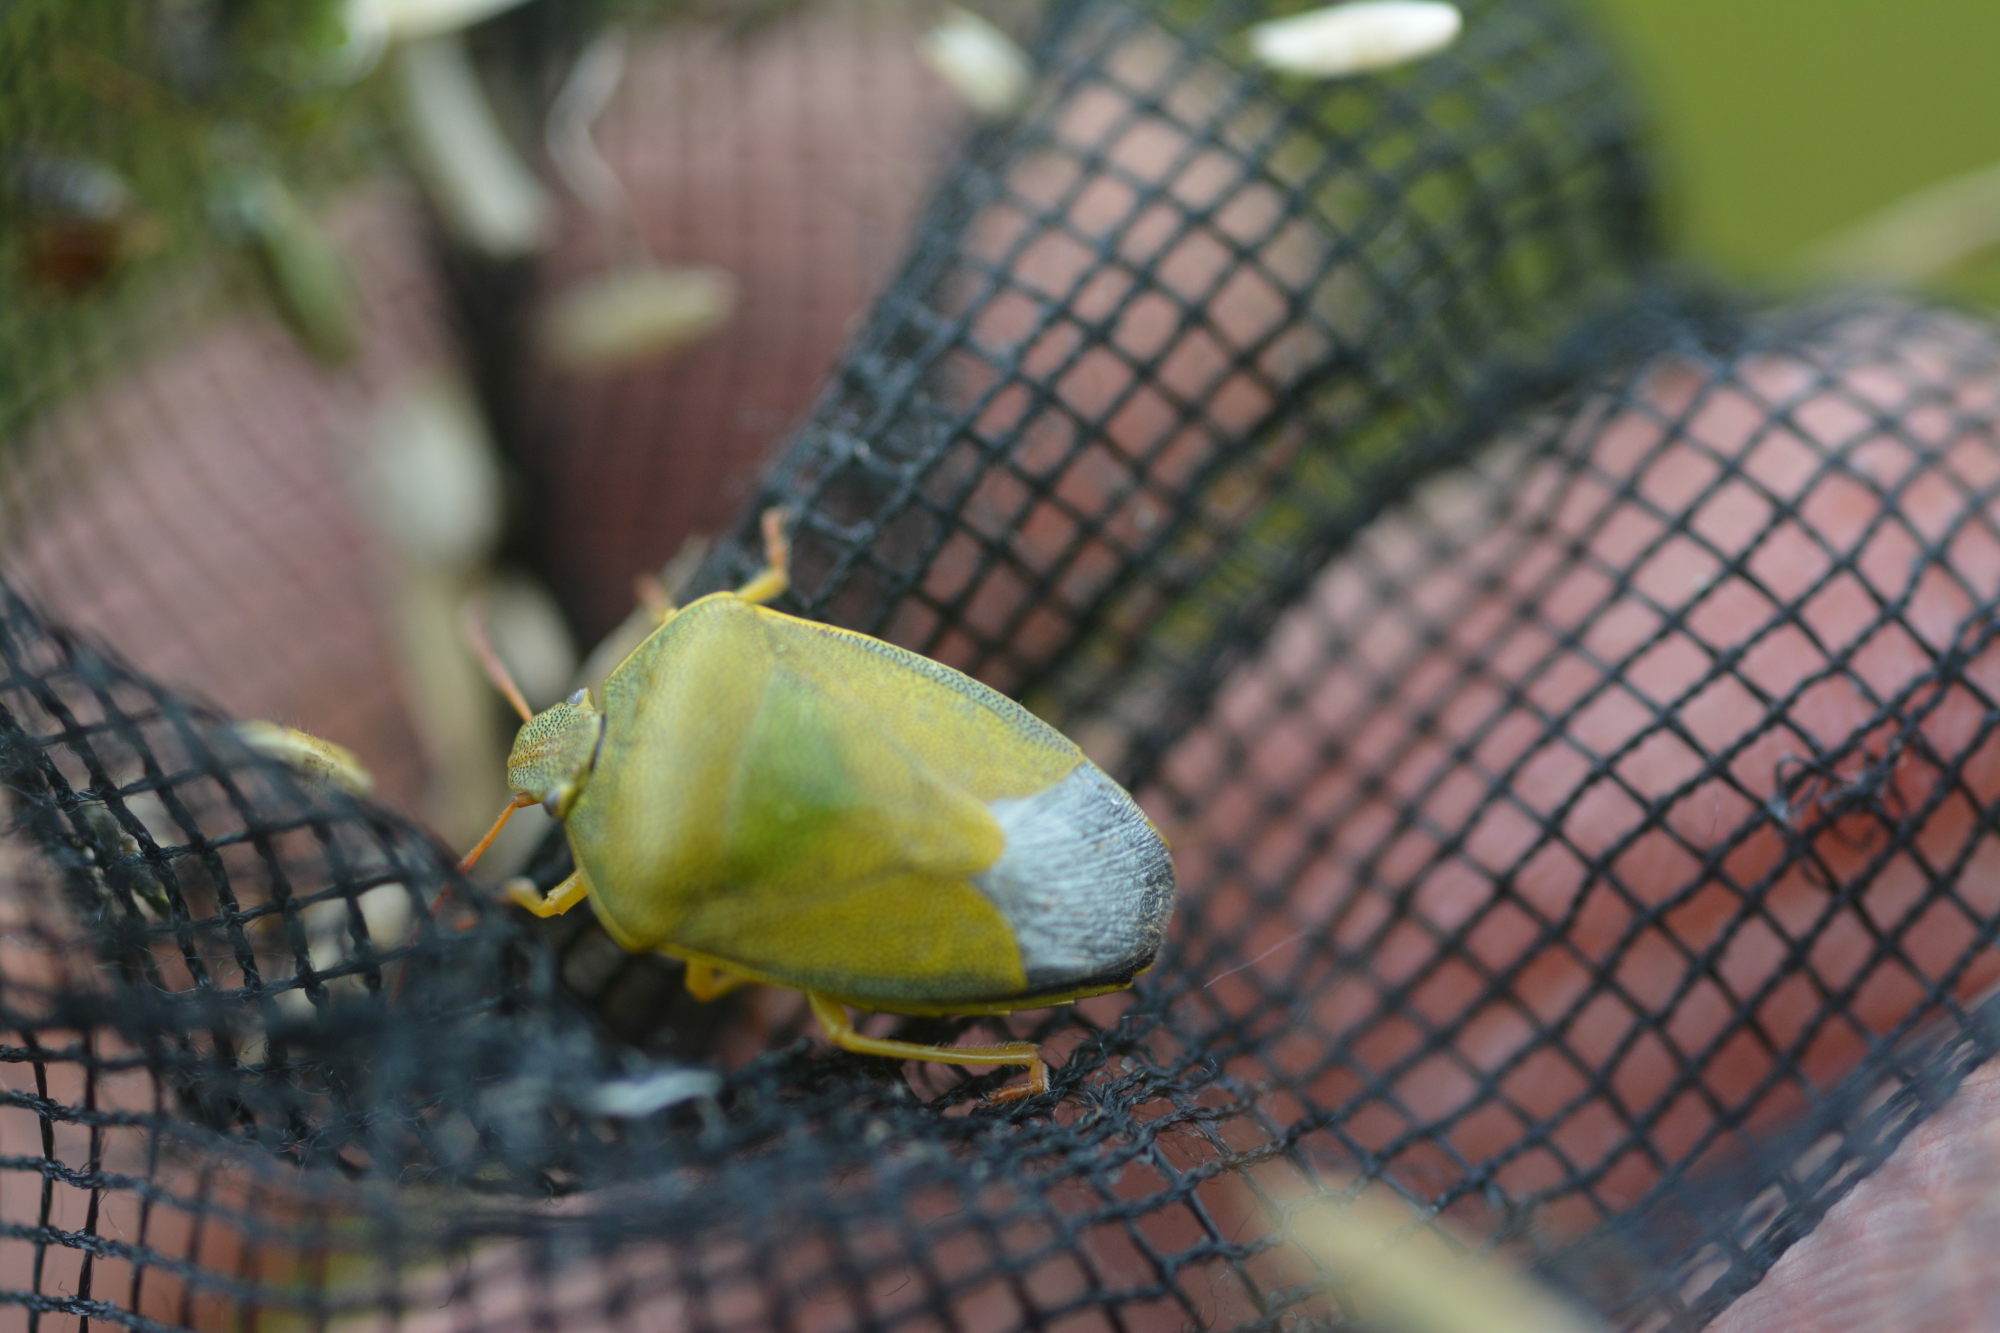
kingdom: Animalia
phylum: Arthropoda
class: Insecta
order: Hemiptera
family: Pentatomidae
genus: Piezodorus
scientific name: Piezodorus lituratus
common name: Stink bug
